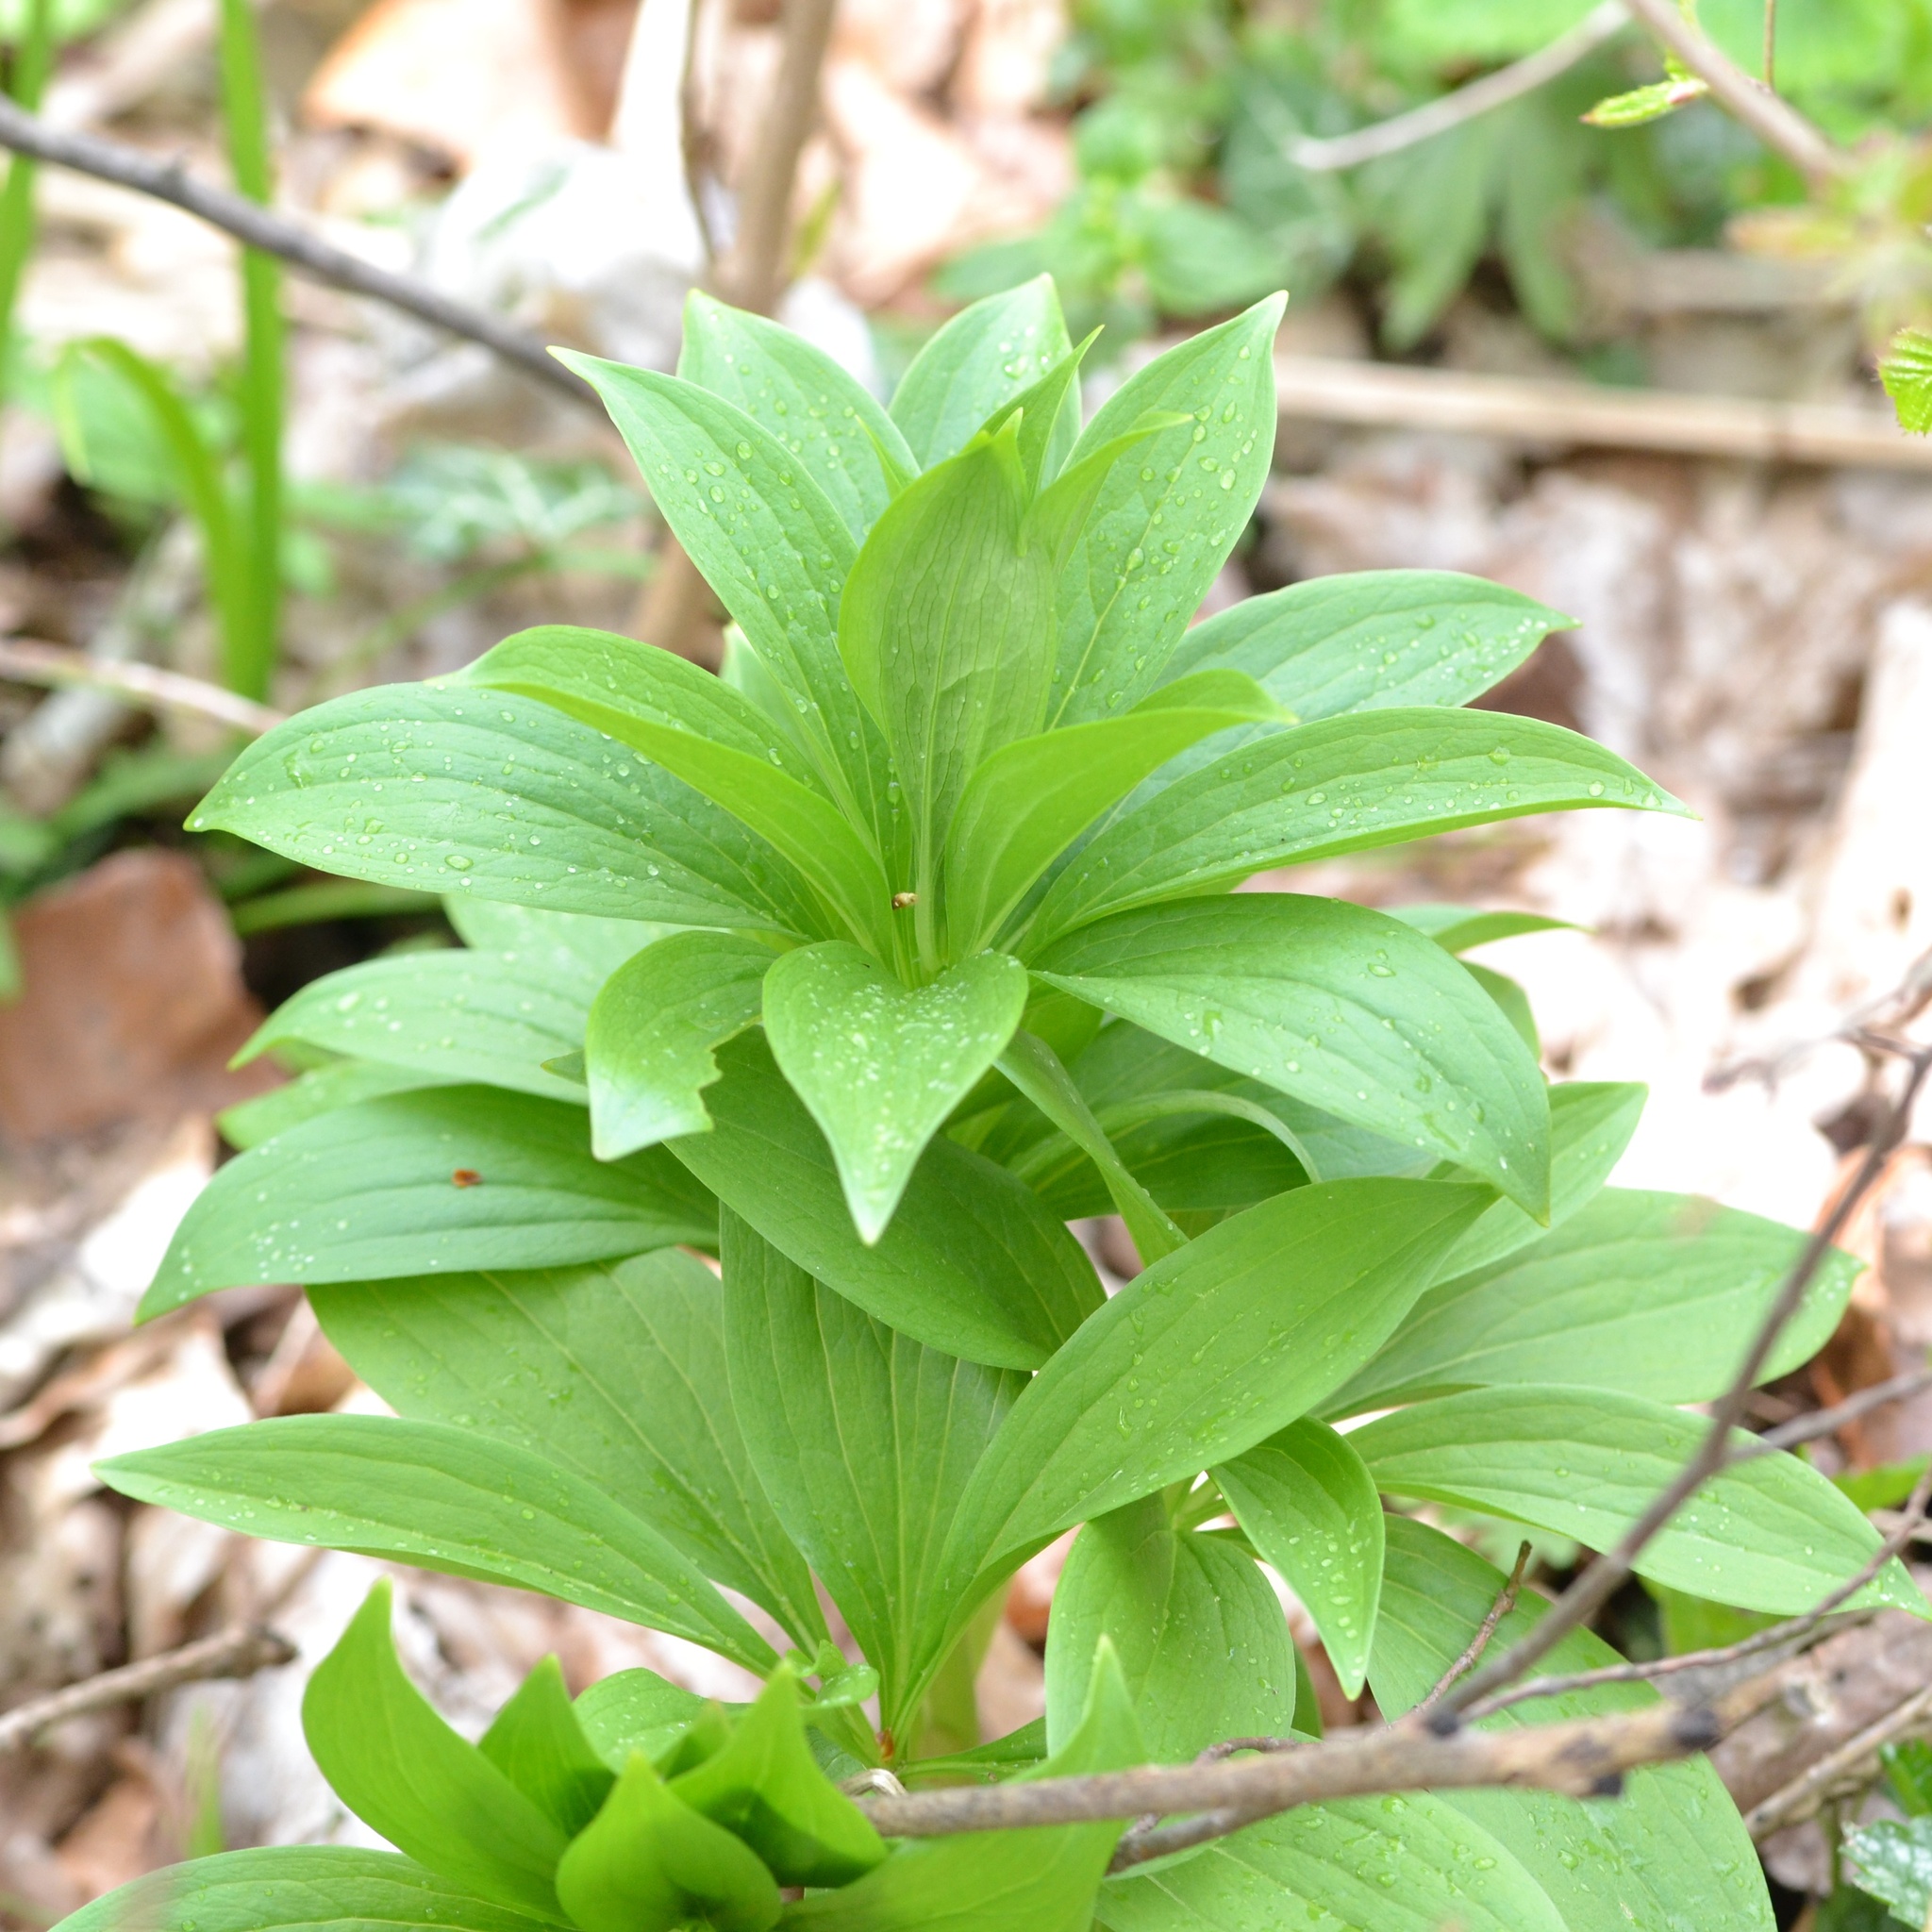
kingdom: Plantae
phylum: Tracheophyta
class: Liliopsida
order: Liliales
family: Liliaceae
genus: Lilium
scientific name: Lilium martagon
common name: Martagon lily
